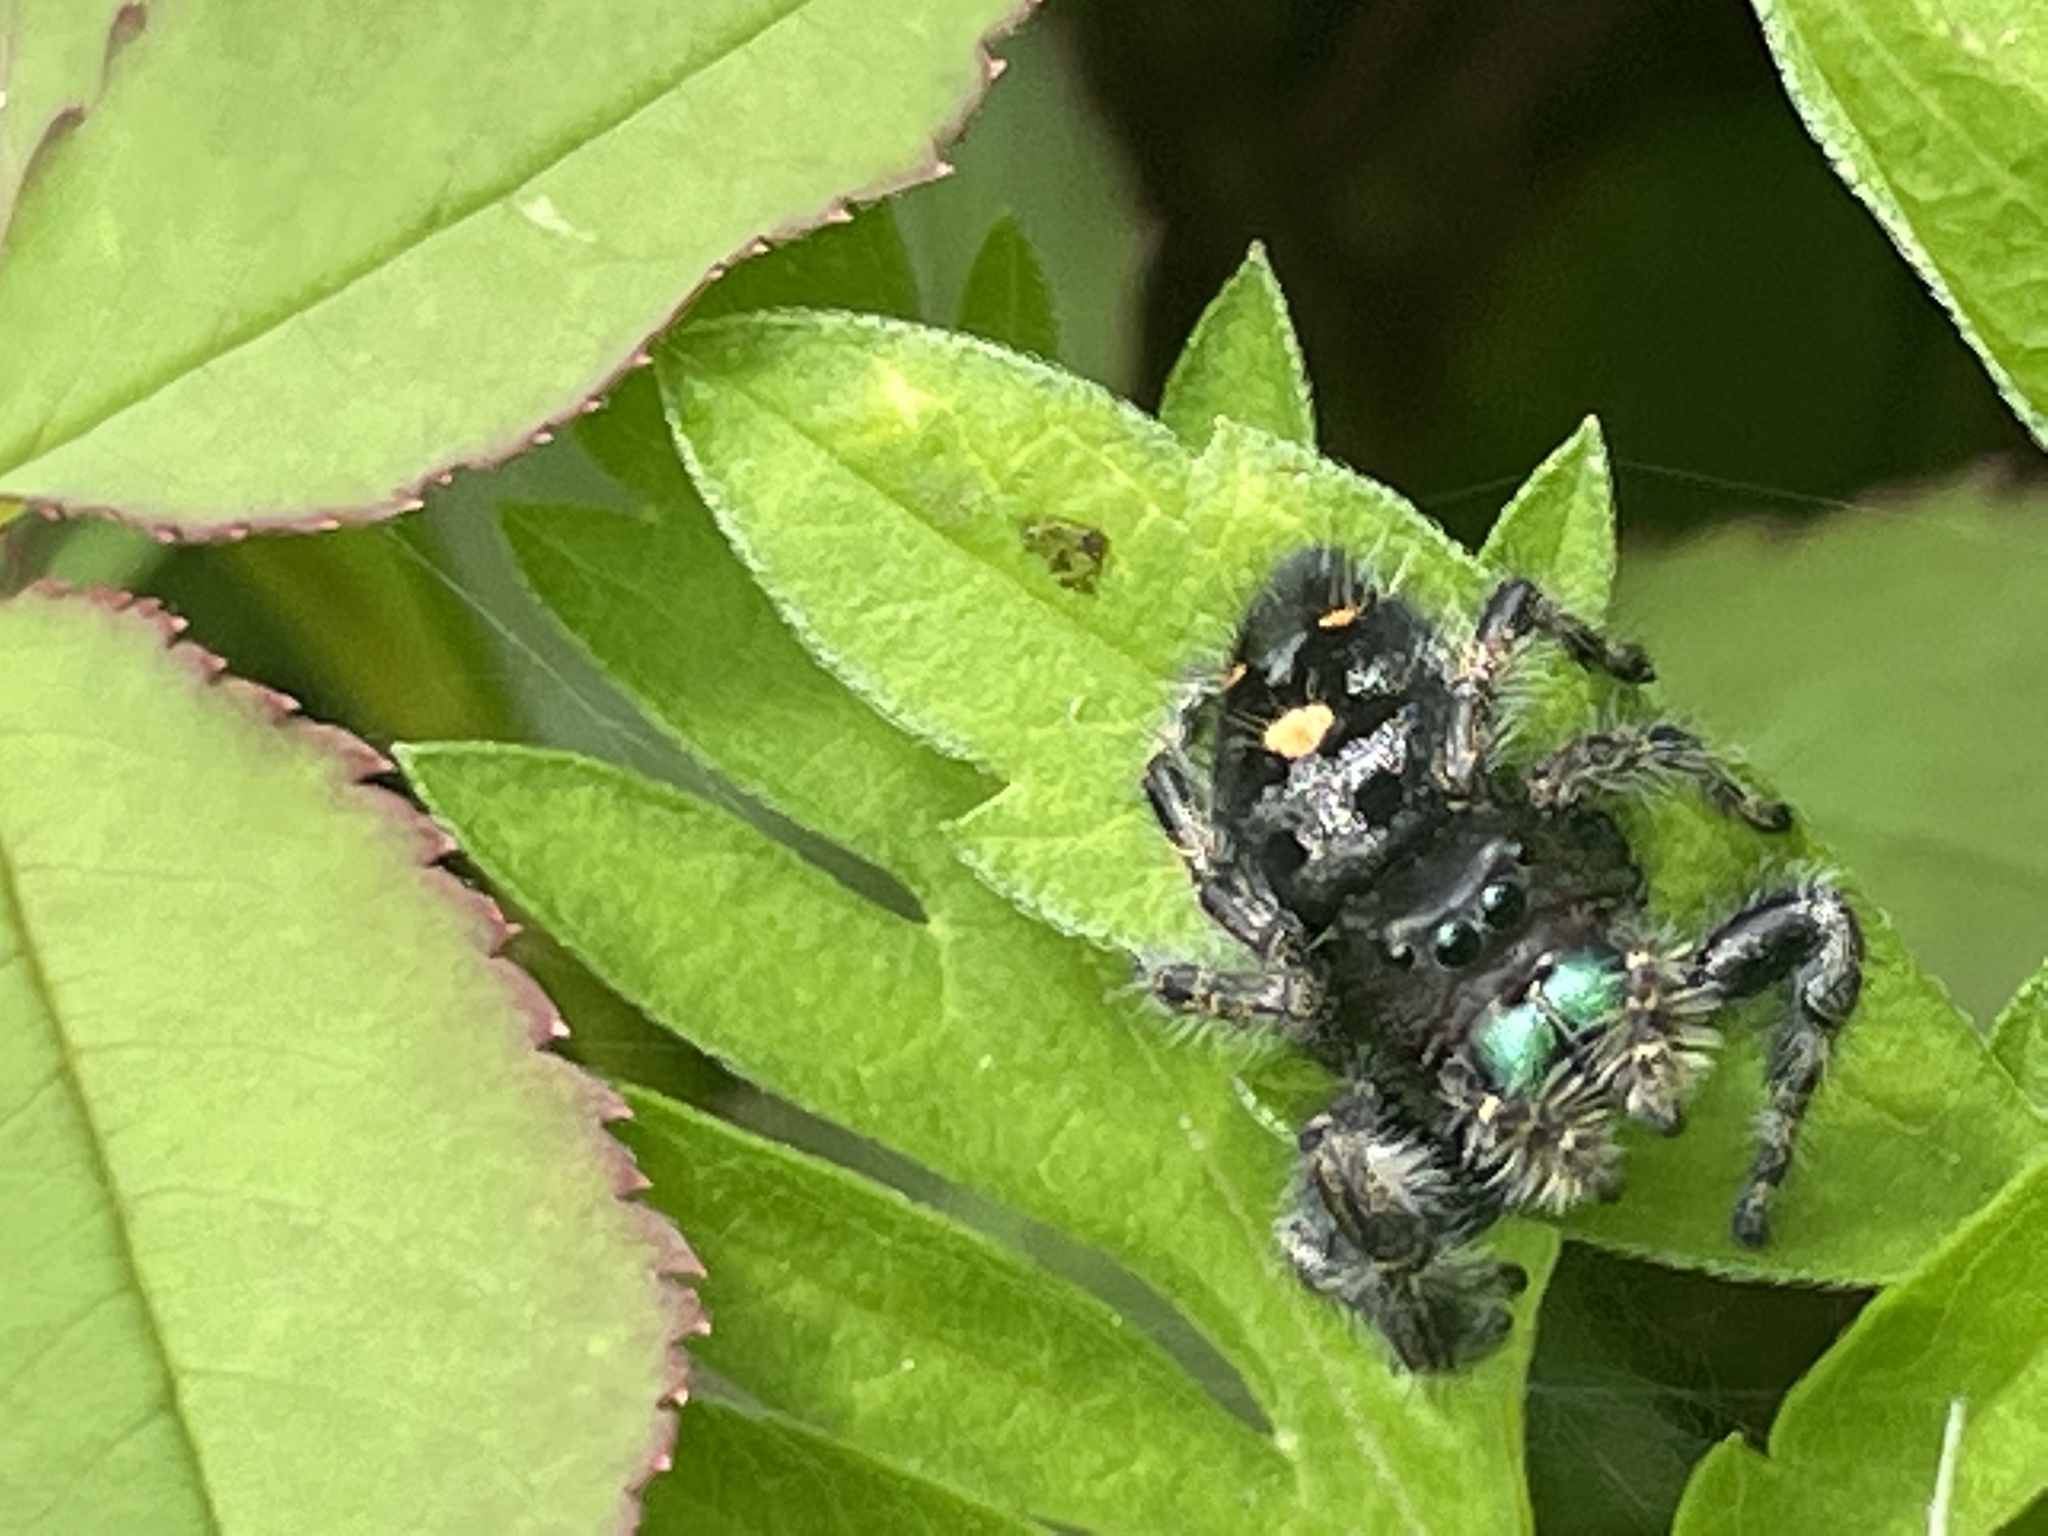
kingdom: Animalia
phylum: Arthropoda
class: Arachnida
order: Araneae
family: Salticidae
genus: Phidippus
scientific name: Phidippus audax
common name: Bold jumper
